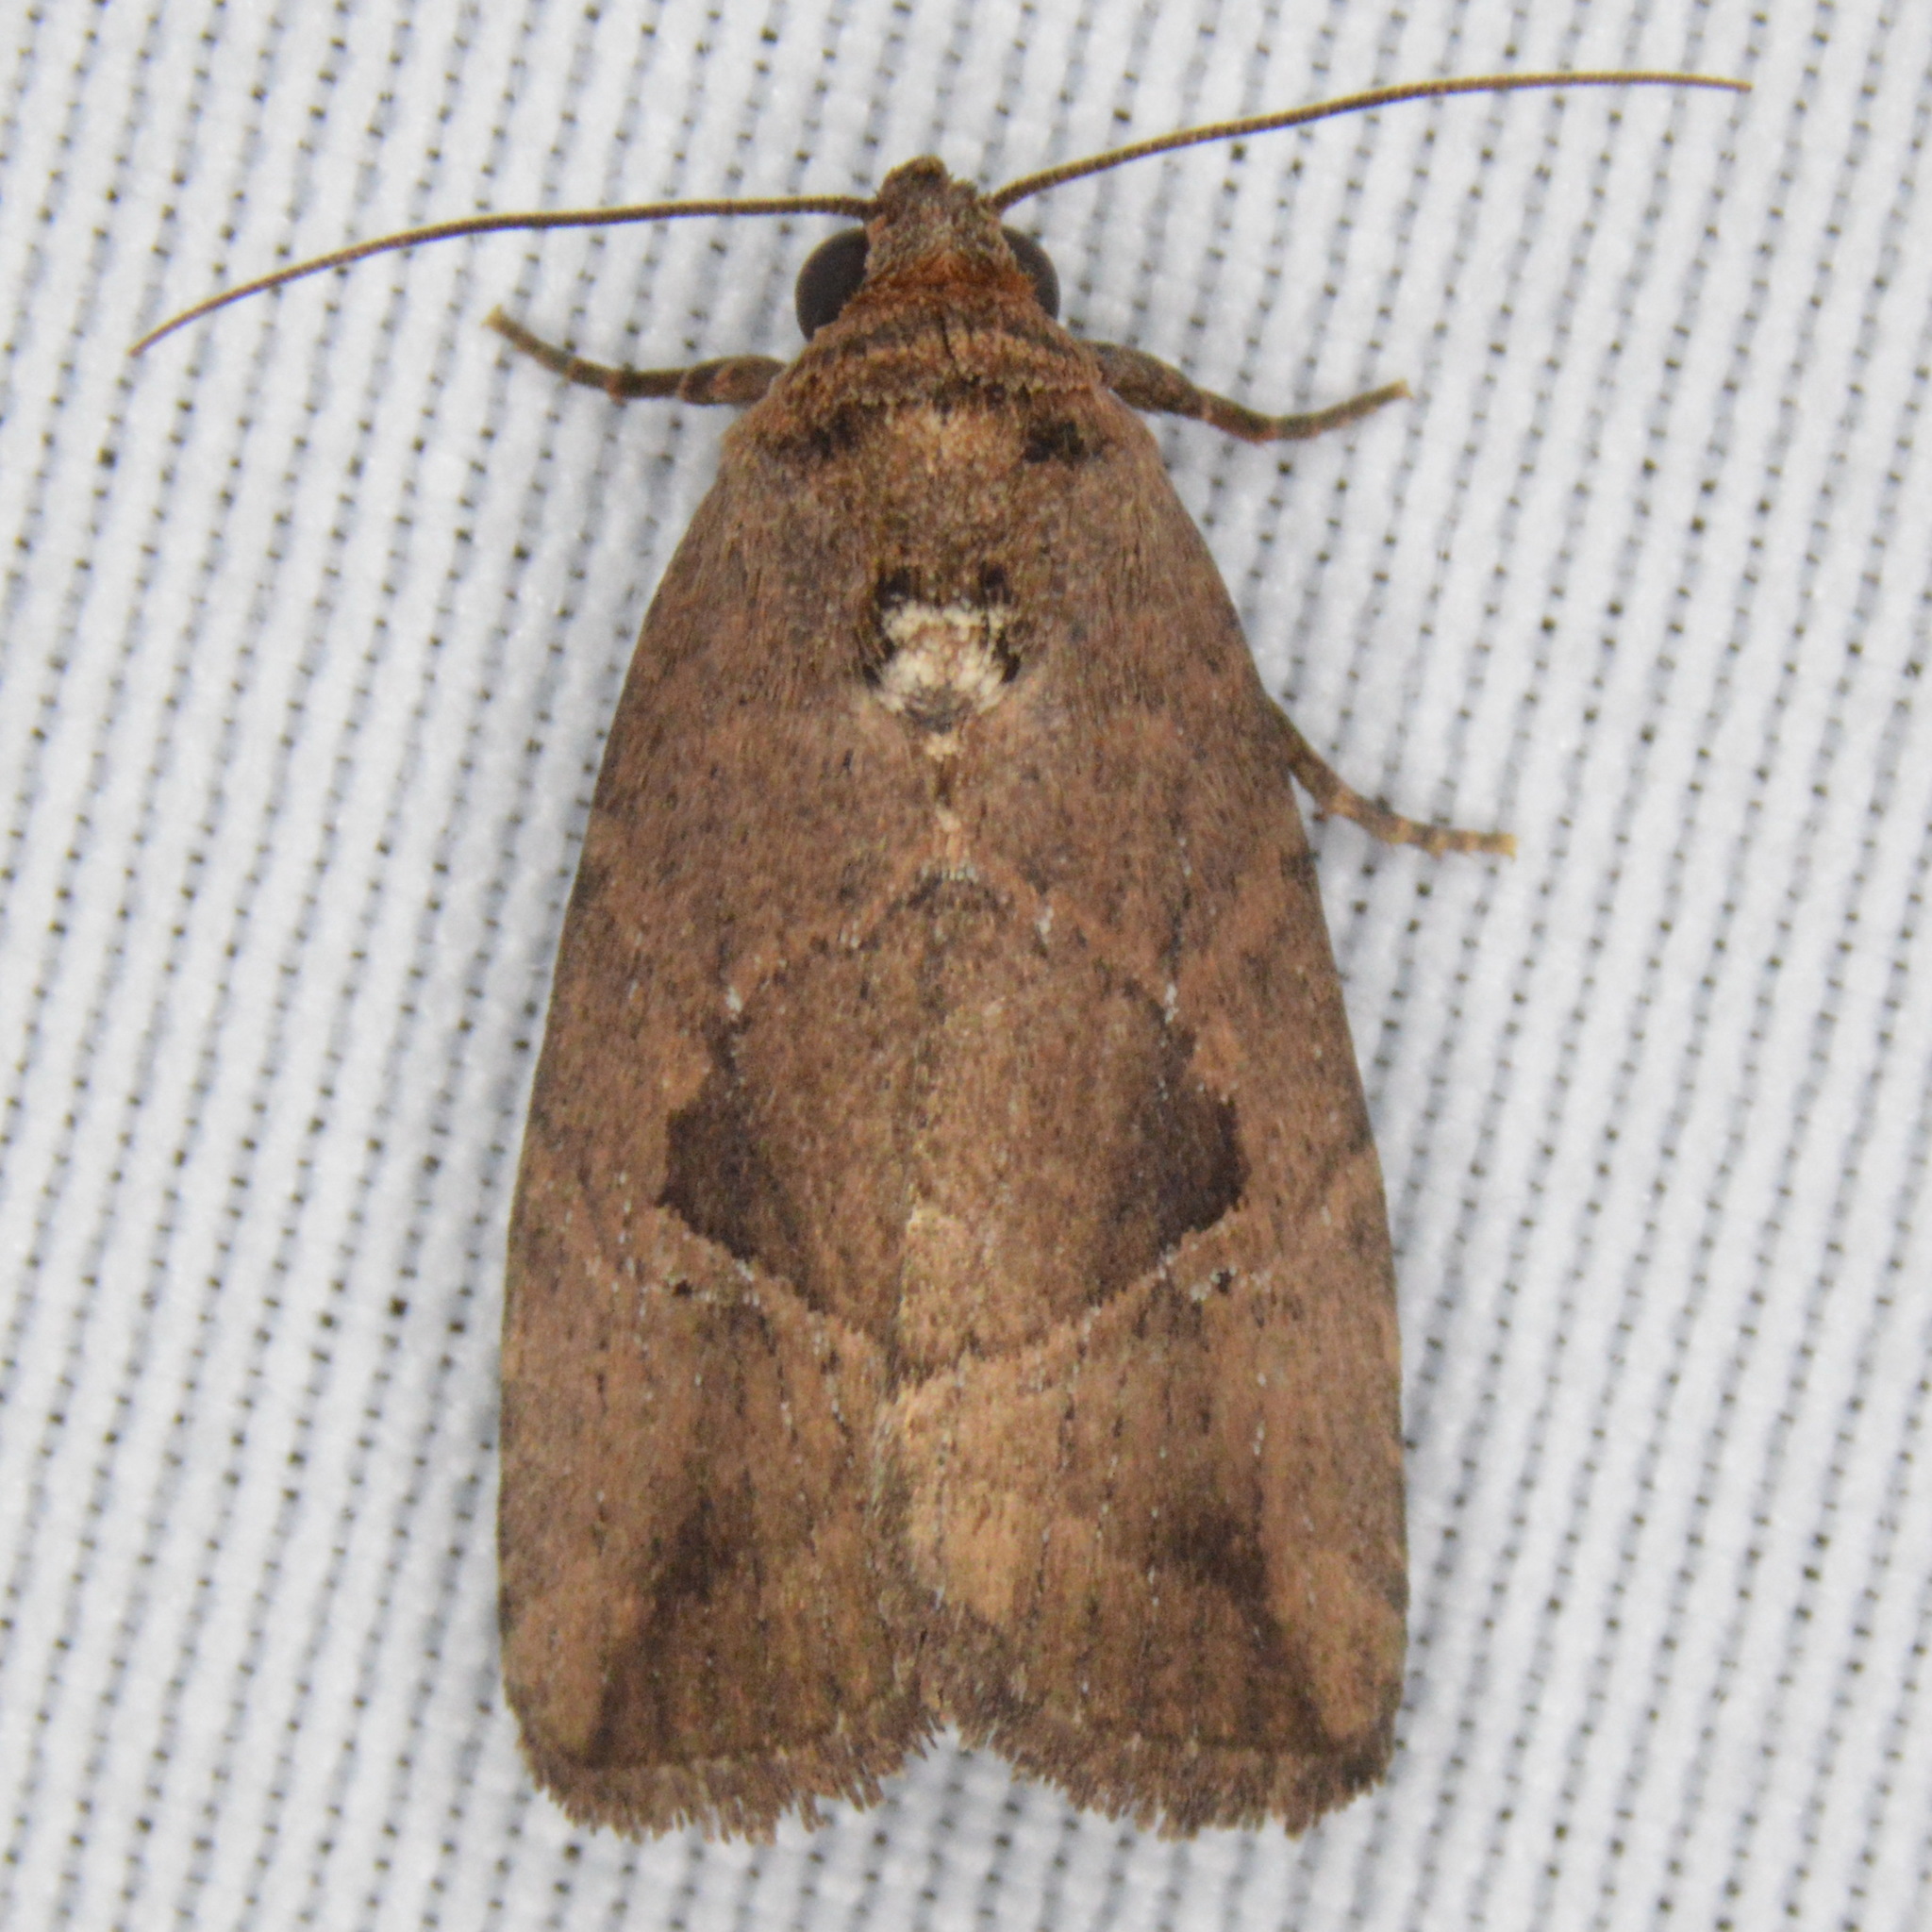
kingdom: Animalia
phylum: Arthropoda
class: Insecta
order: Lepidoptera
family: Noctuidae
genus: Elaphria
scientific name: Elaphria nucicolora
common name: Sugarcane midget moth
